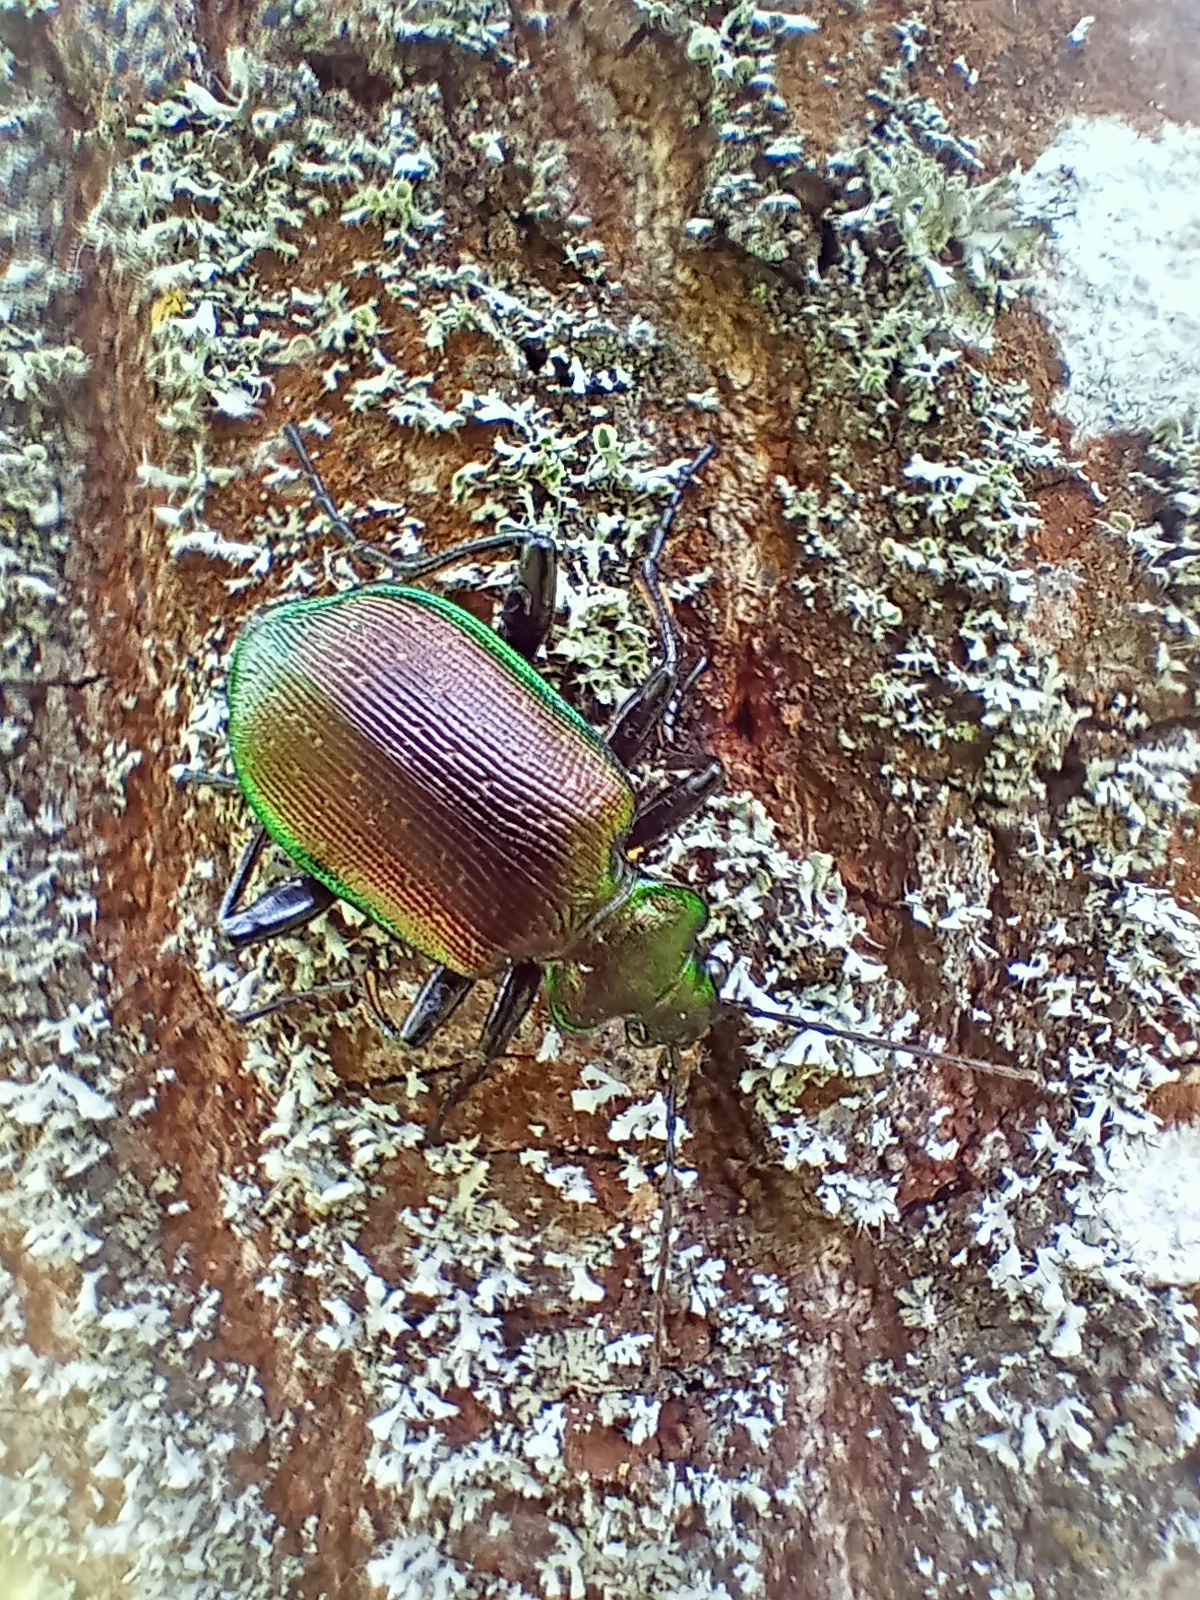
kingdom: Animalia
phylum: Arthropoda
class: Insecta
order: Coleoptera
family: Carabidae
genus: Calosoma
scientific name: Calosoma inquisitor
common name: Caterpillar-hunter
